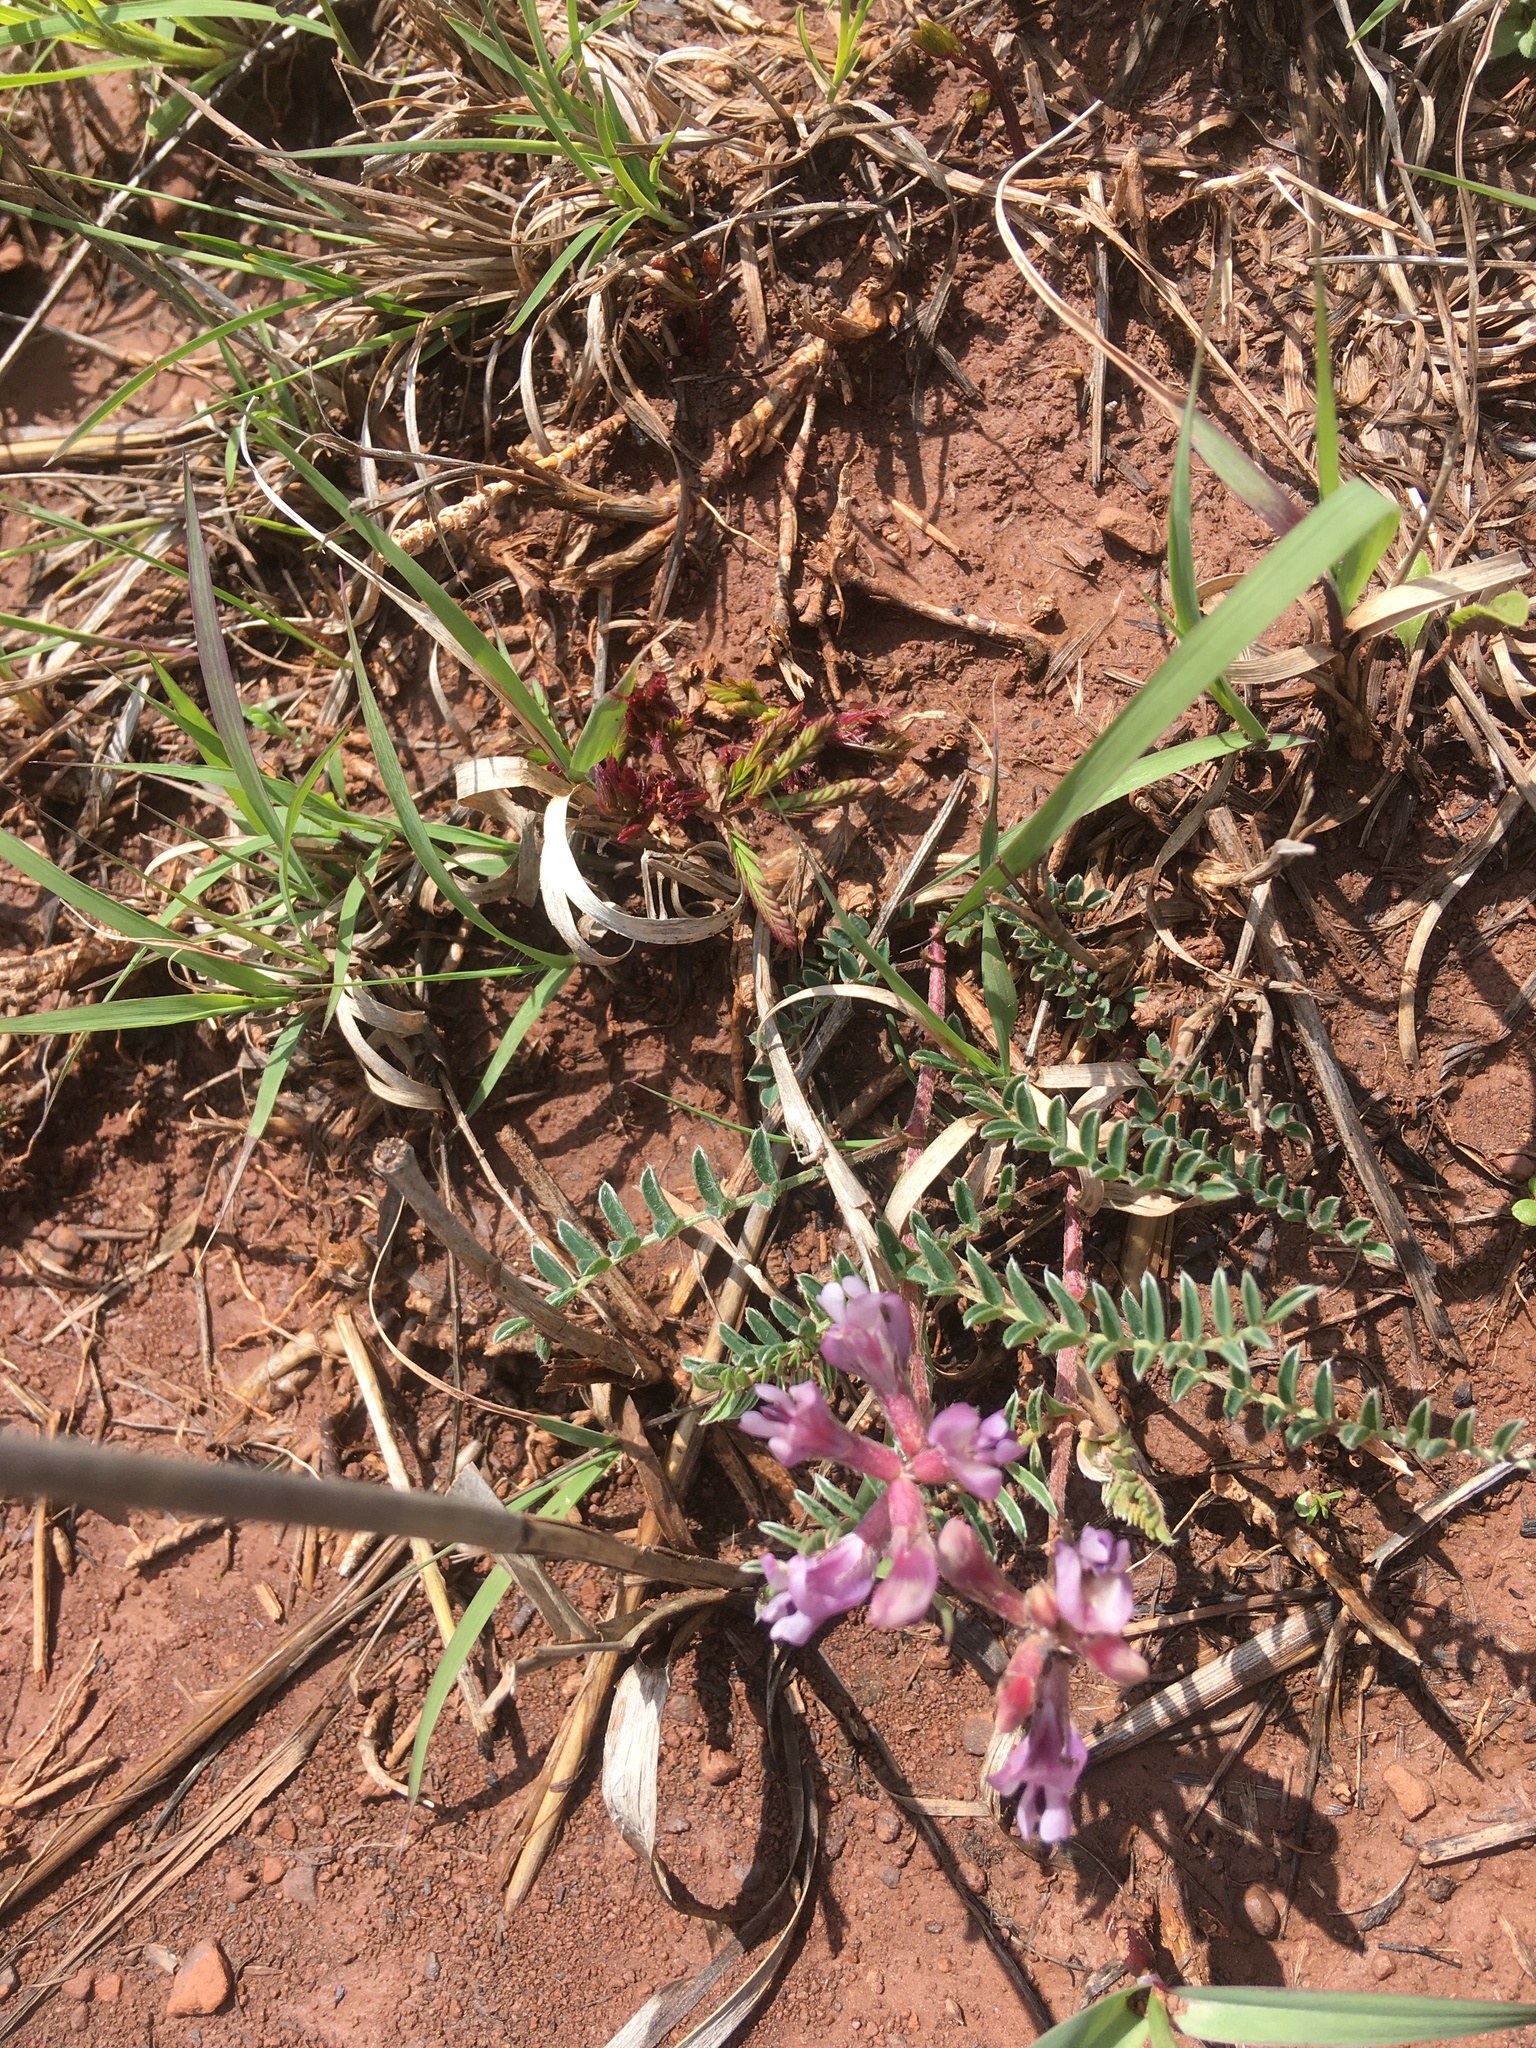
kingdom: Plantae
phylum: Tracheophyta
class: Magnoliopsida
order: Fabales
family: Fabaceae
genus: Astragalus
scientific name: Astragalus crassicarpus
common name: Ground-plum milk-vetch
